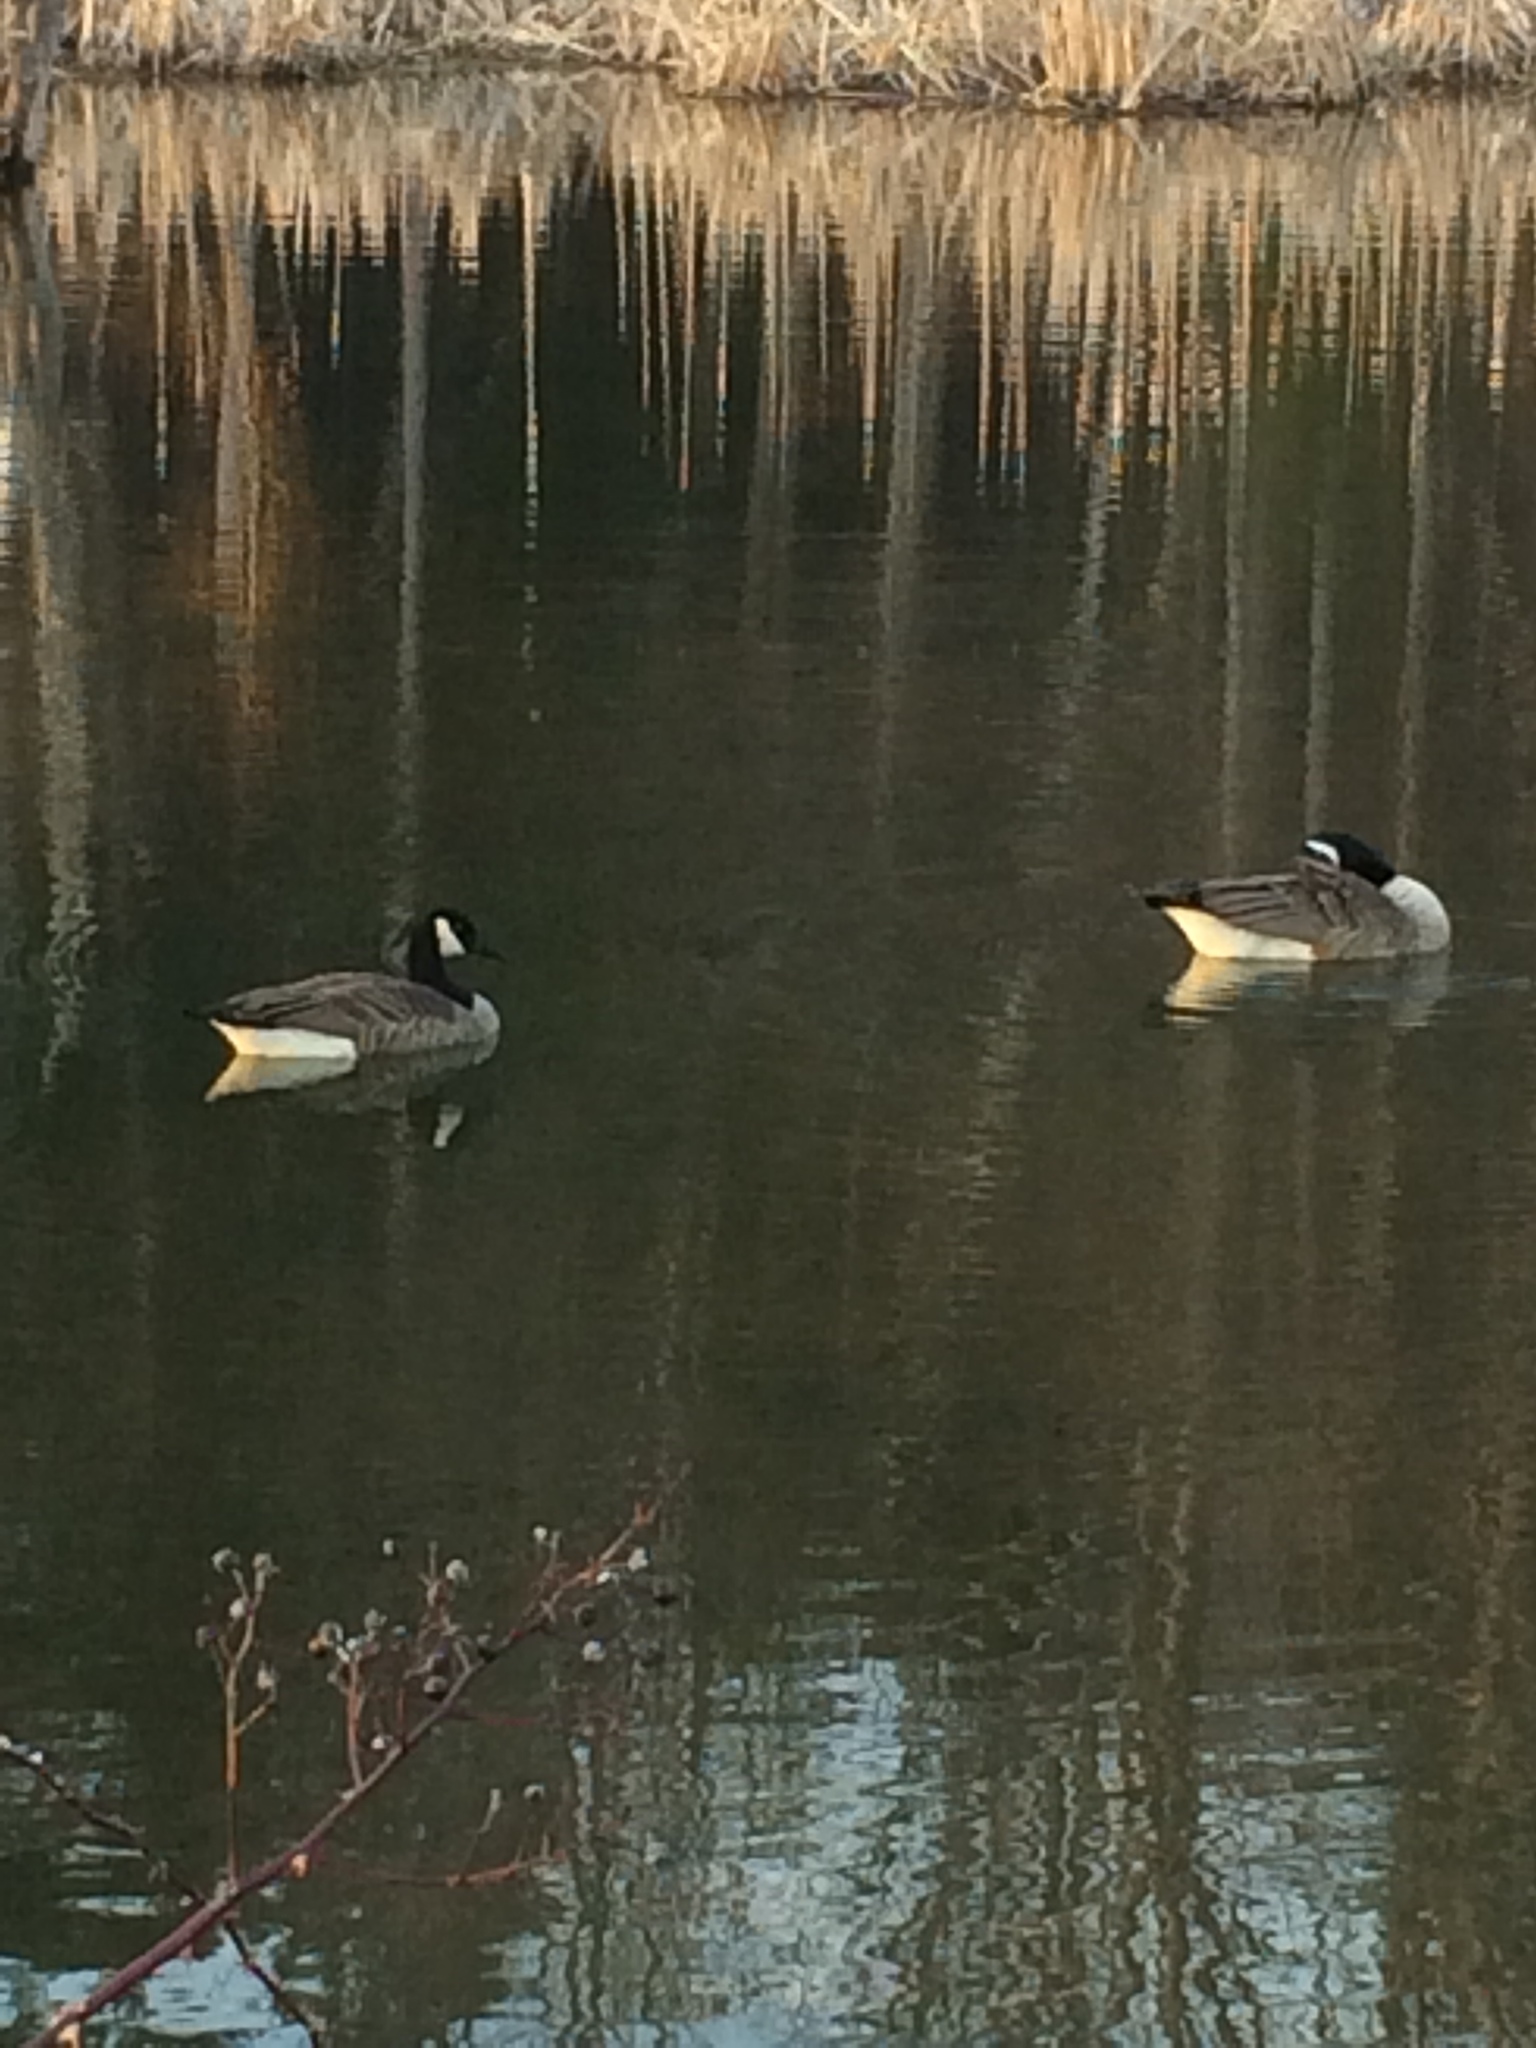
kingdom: Animalia
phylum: Chordata
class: Aves
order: Anseriformes
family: Anatidae
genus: Branta
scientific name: Branta canadensis
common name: Canada goose
